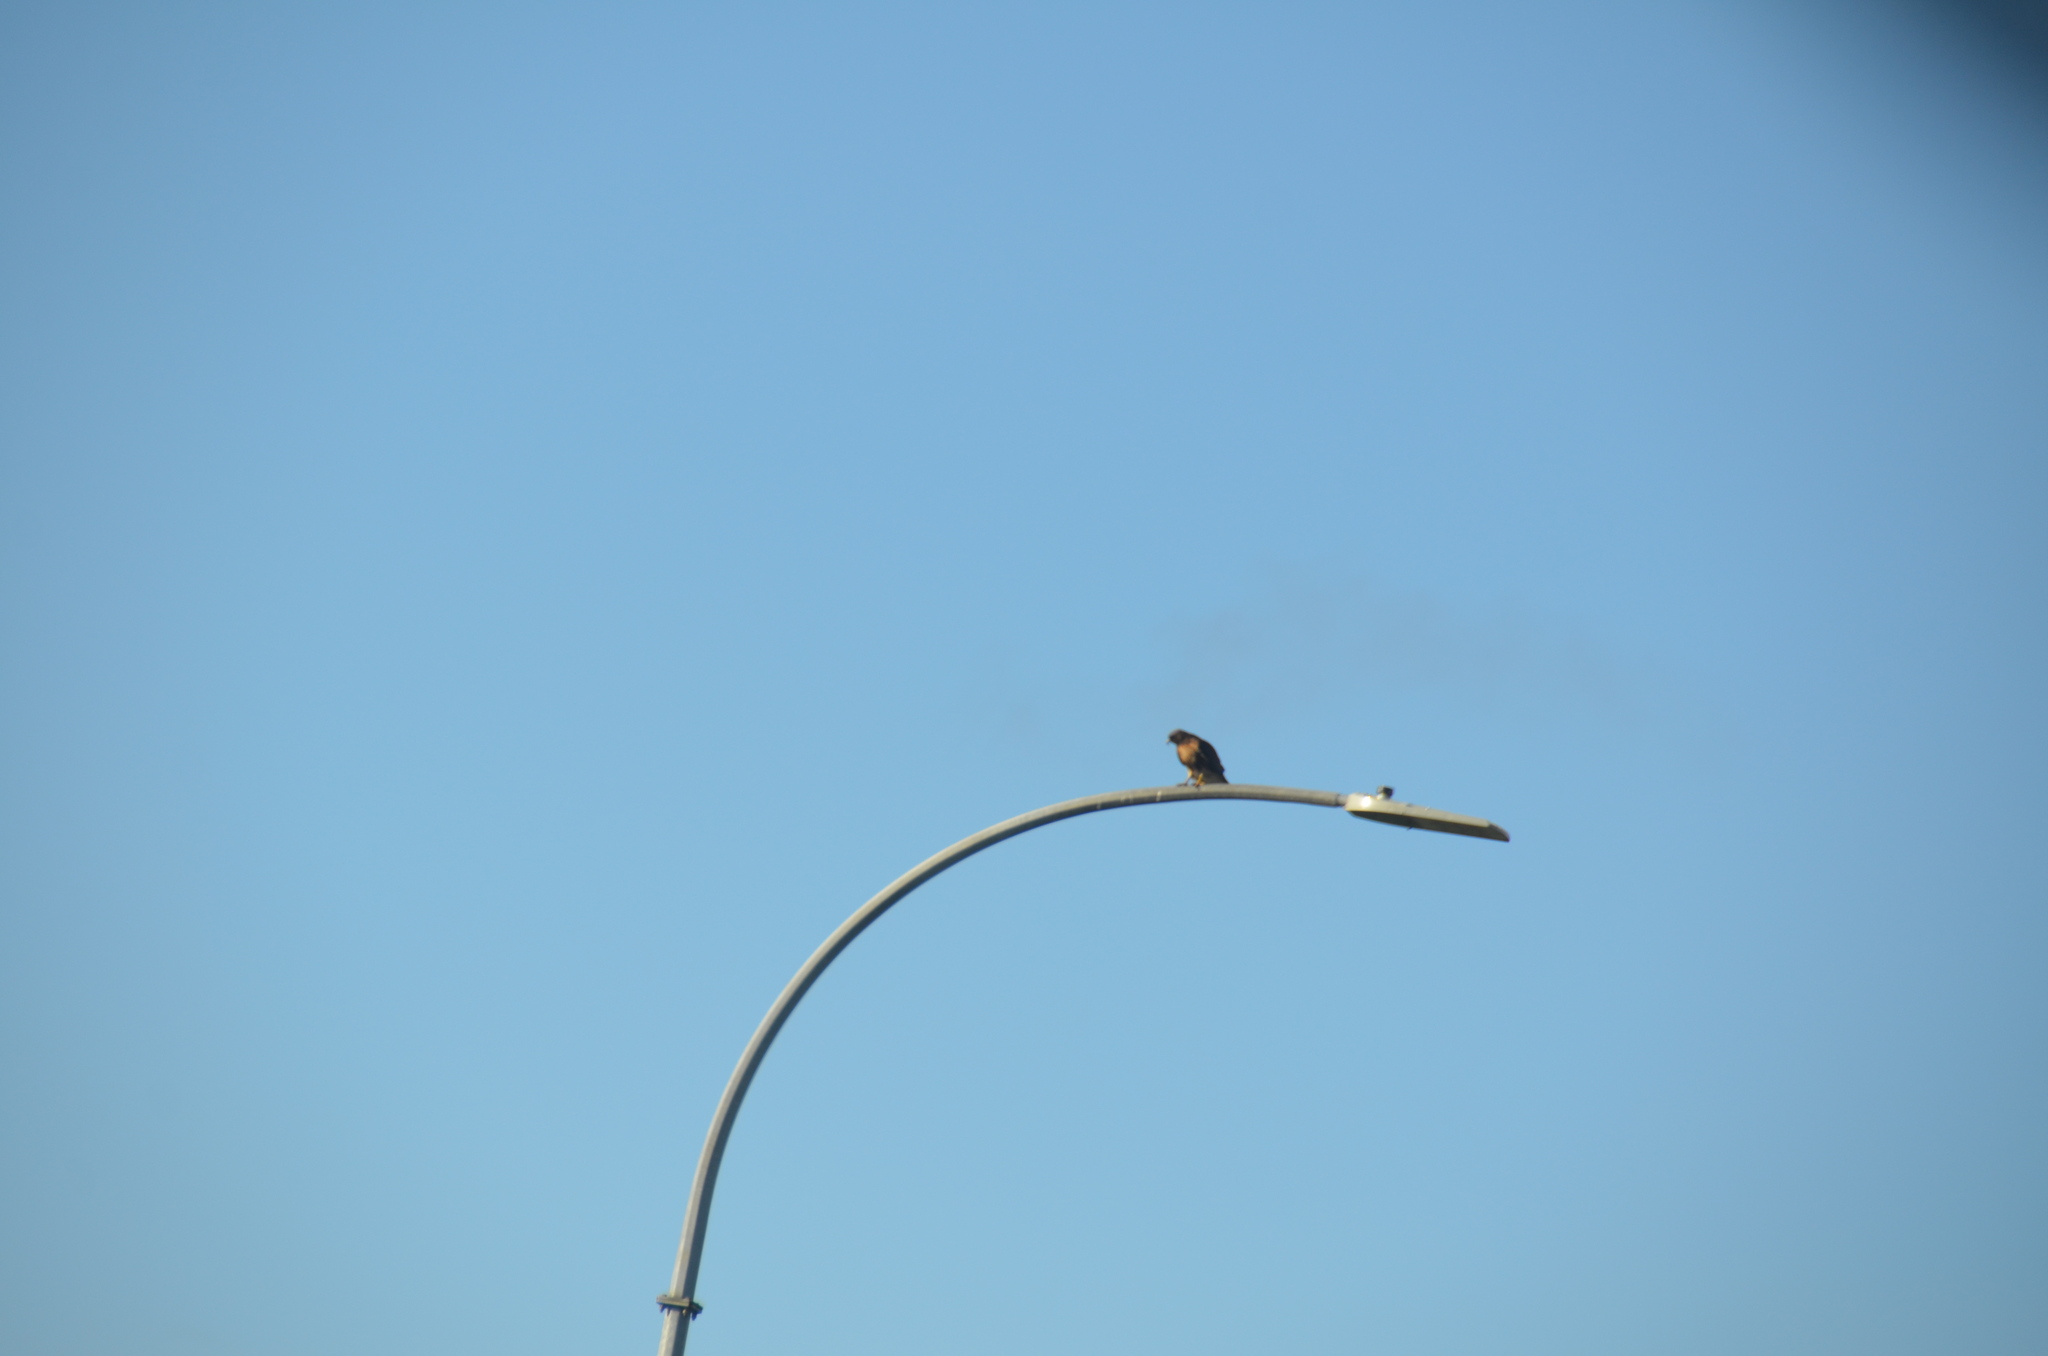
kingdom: Animalia
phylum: Chordata
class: Aves
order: Accipitriformes
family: Accipitridae
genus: Buteo
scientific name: Buteo jamaicensis
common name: Red-tailed hawk
